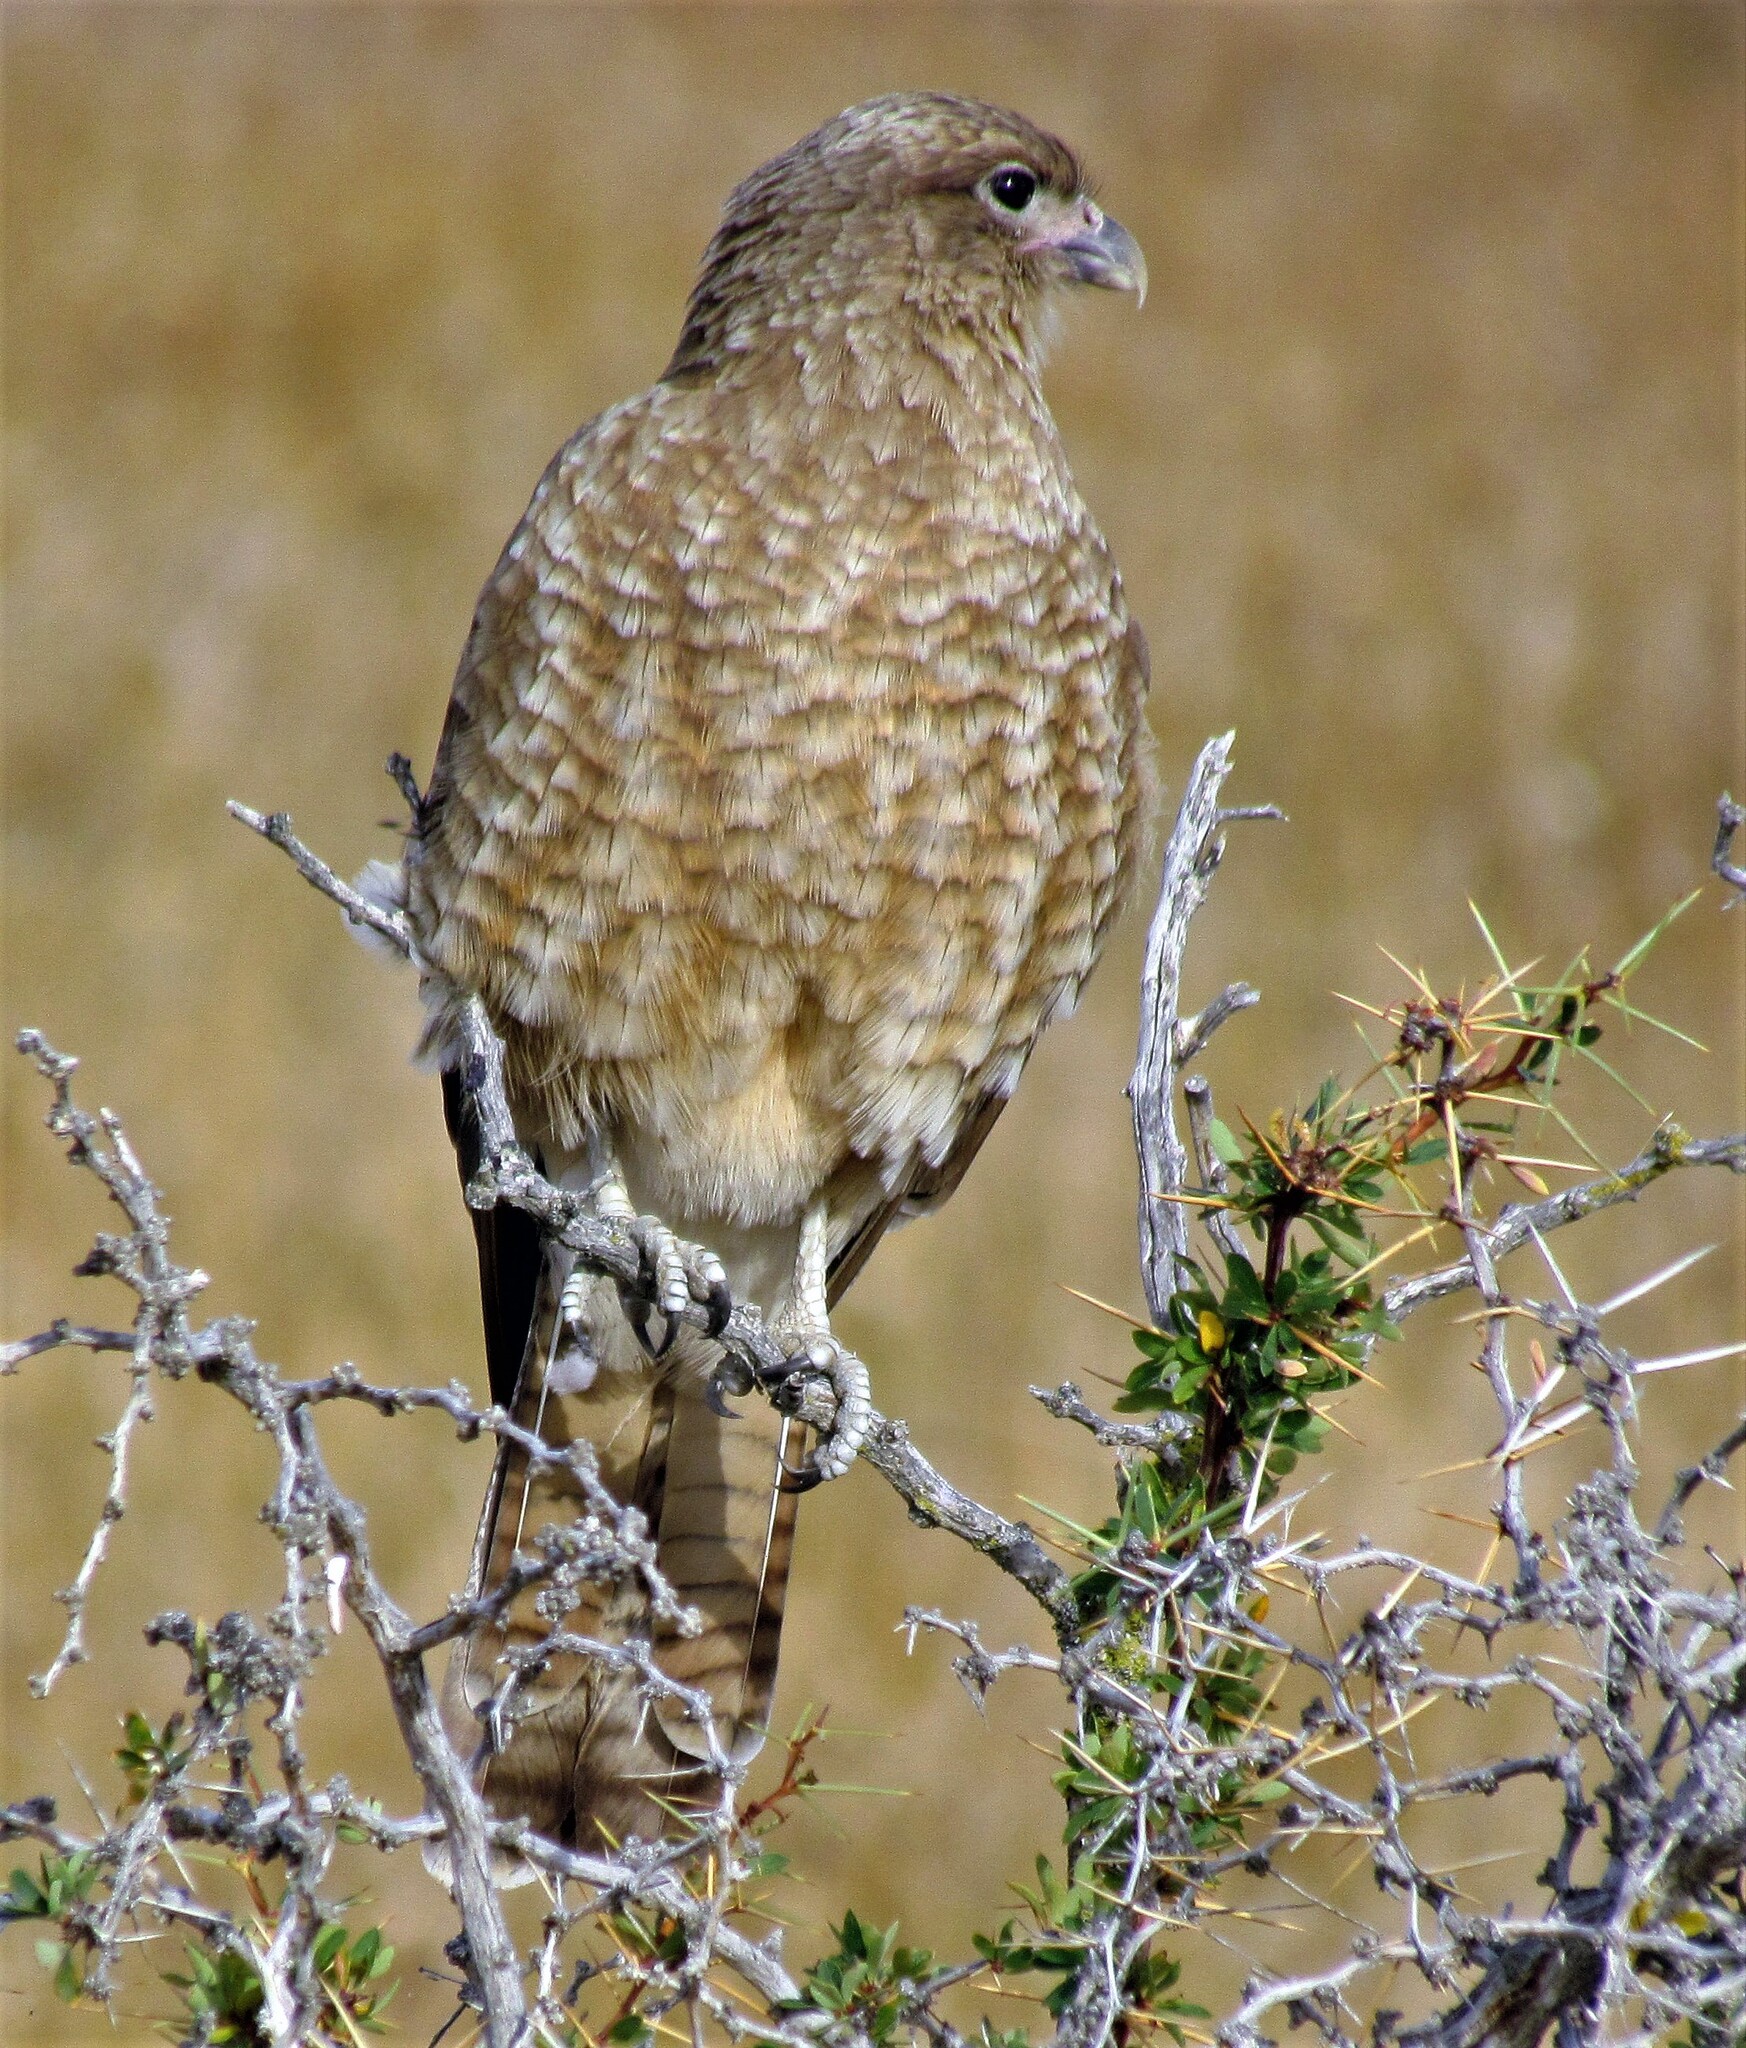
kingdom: Animalia
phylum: Chordata
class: Aves
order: Falconiformes
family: Falconidae
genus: Daptrius
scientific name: Daptrius
